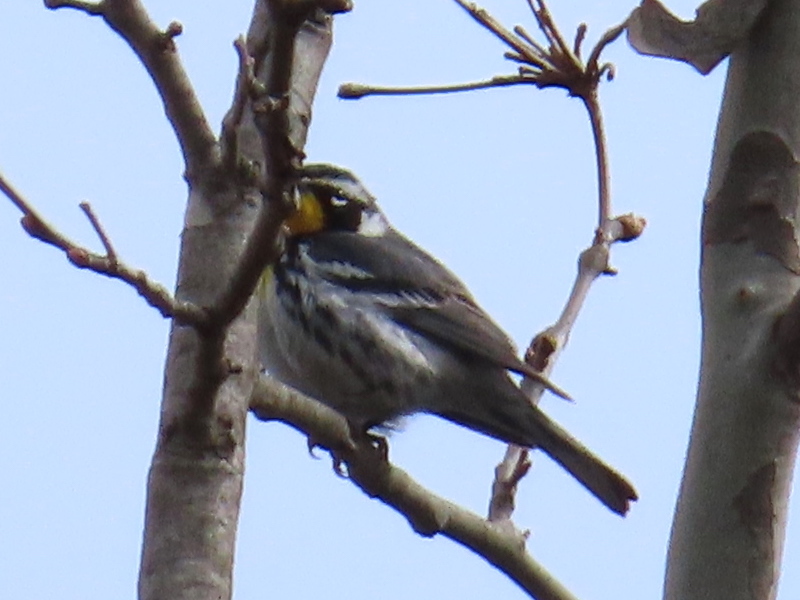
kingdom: Animalia
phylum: Chordata
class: Aves
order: Passeriformes
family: Parulidae
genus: Setophaga
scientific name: Setophaga dominica
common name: Yellow-throated warbler
